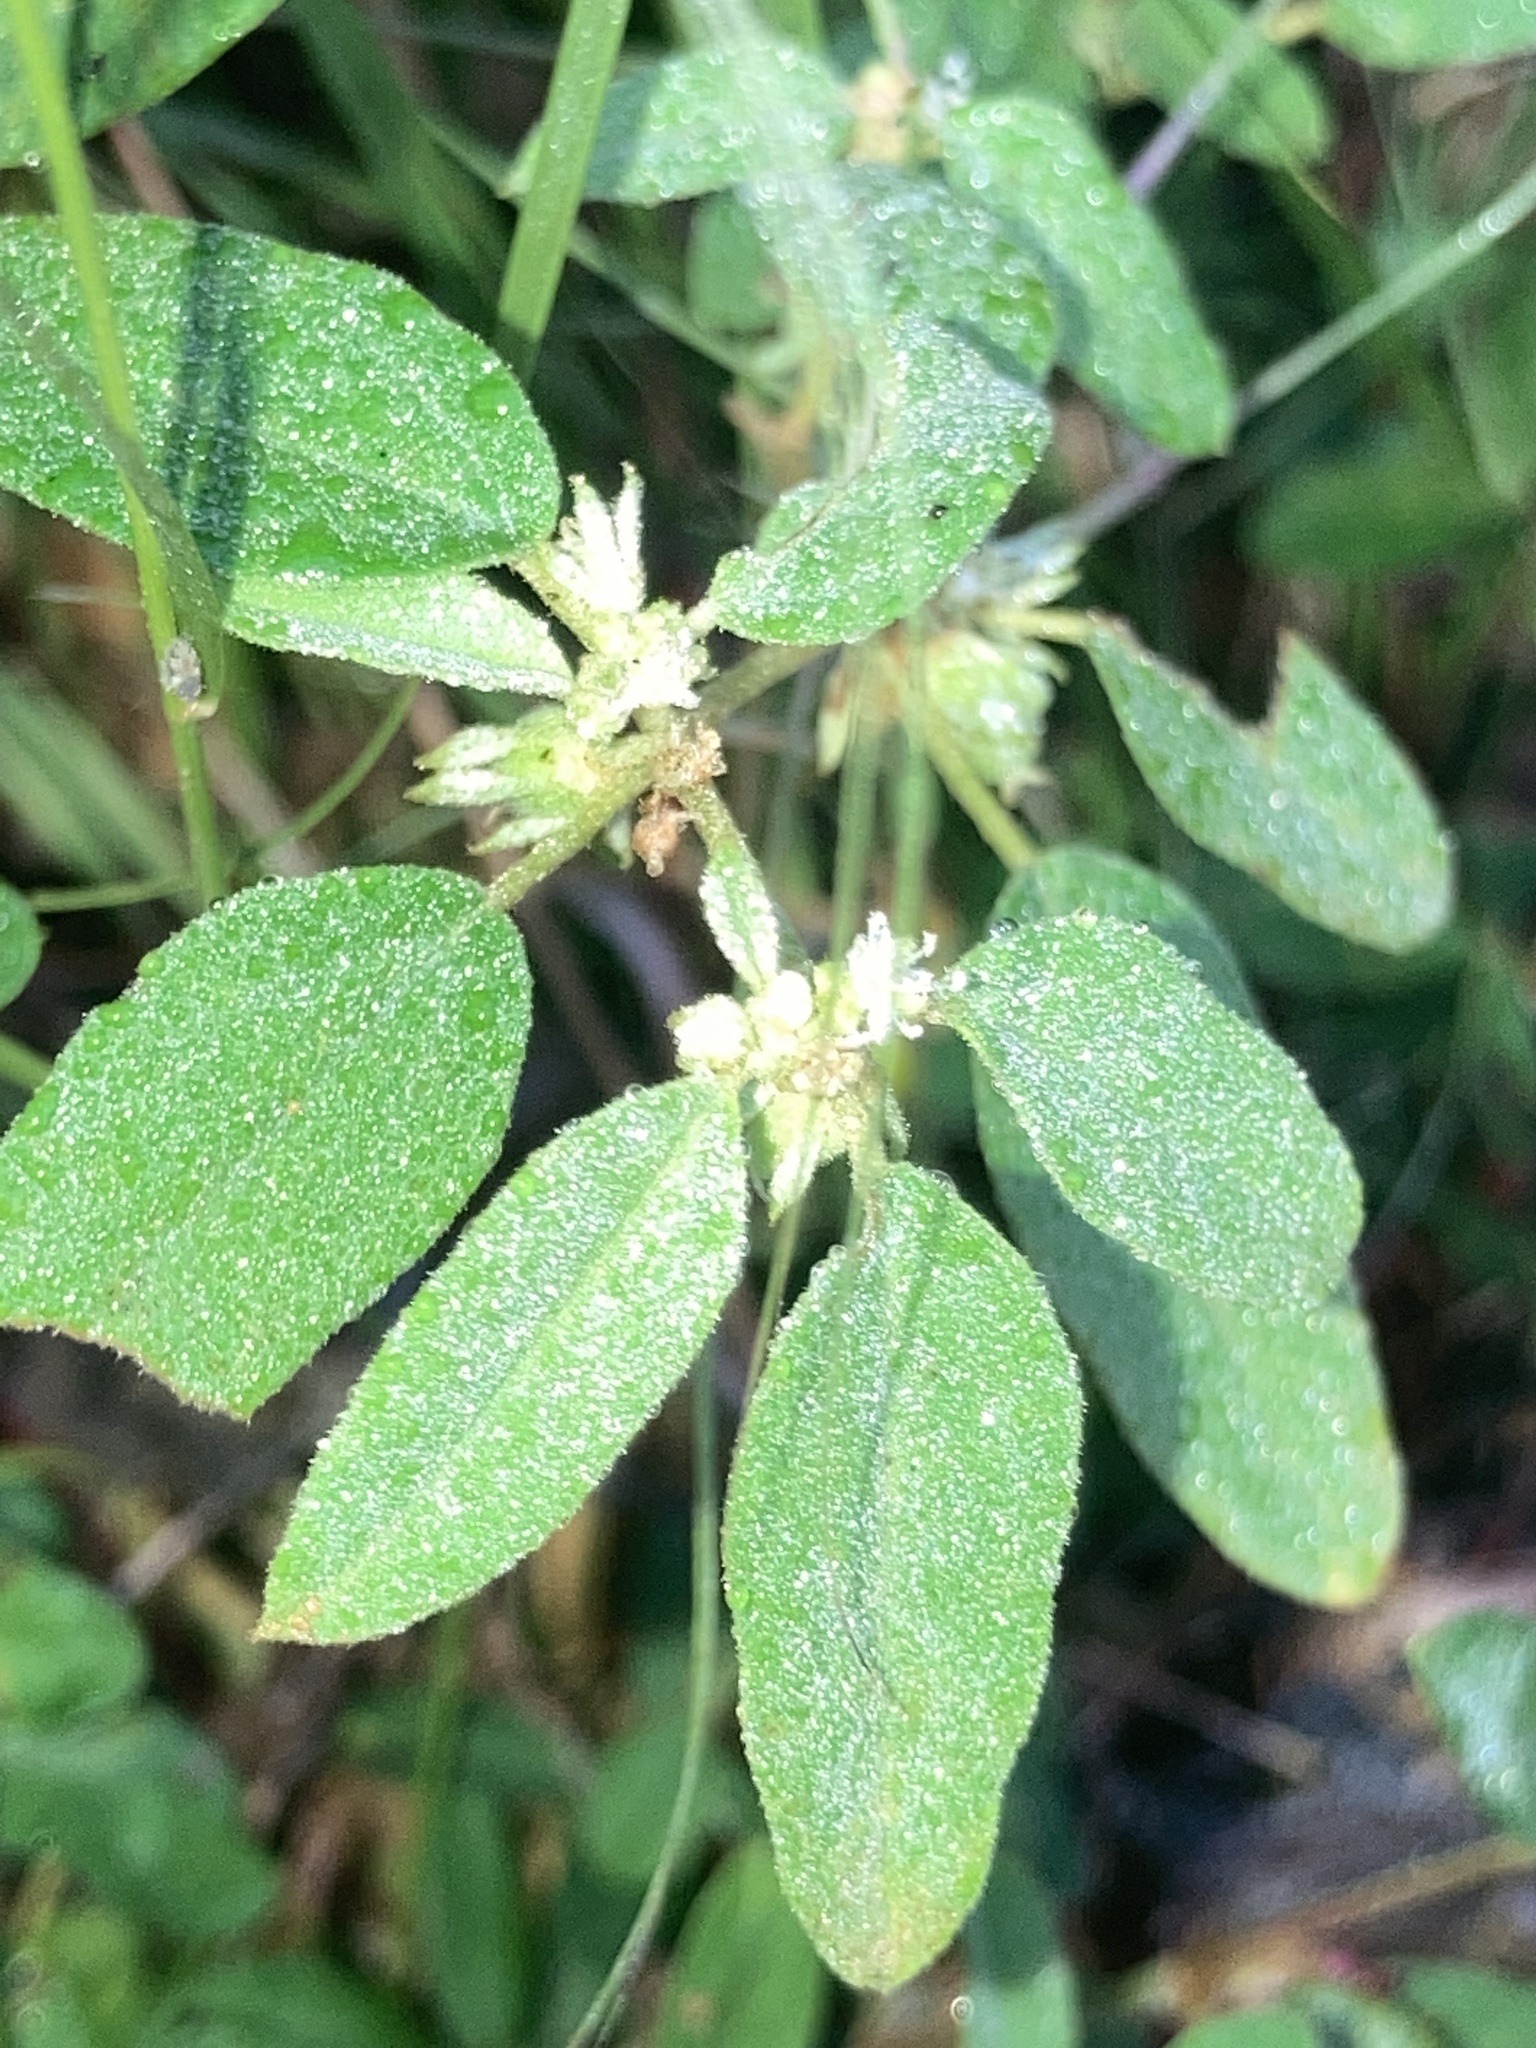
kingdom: Plantae
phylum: Tracheophyta
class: Magnoliopsida
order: Malpighiales
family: Euphorbiaceae
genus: Croton
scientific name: Croton monanthogynus
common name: One-seed croton
